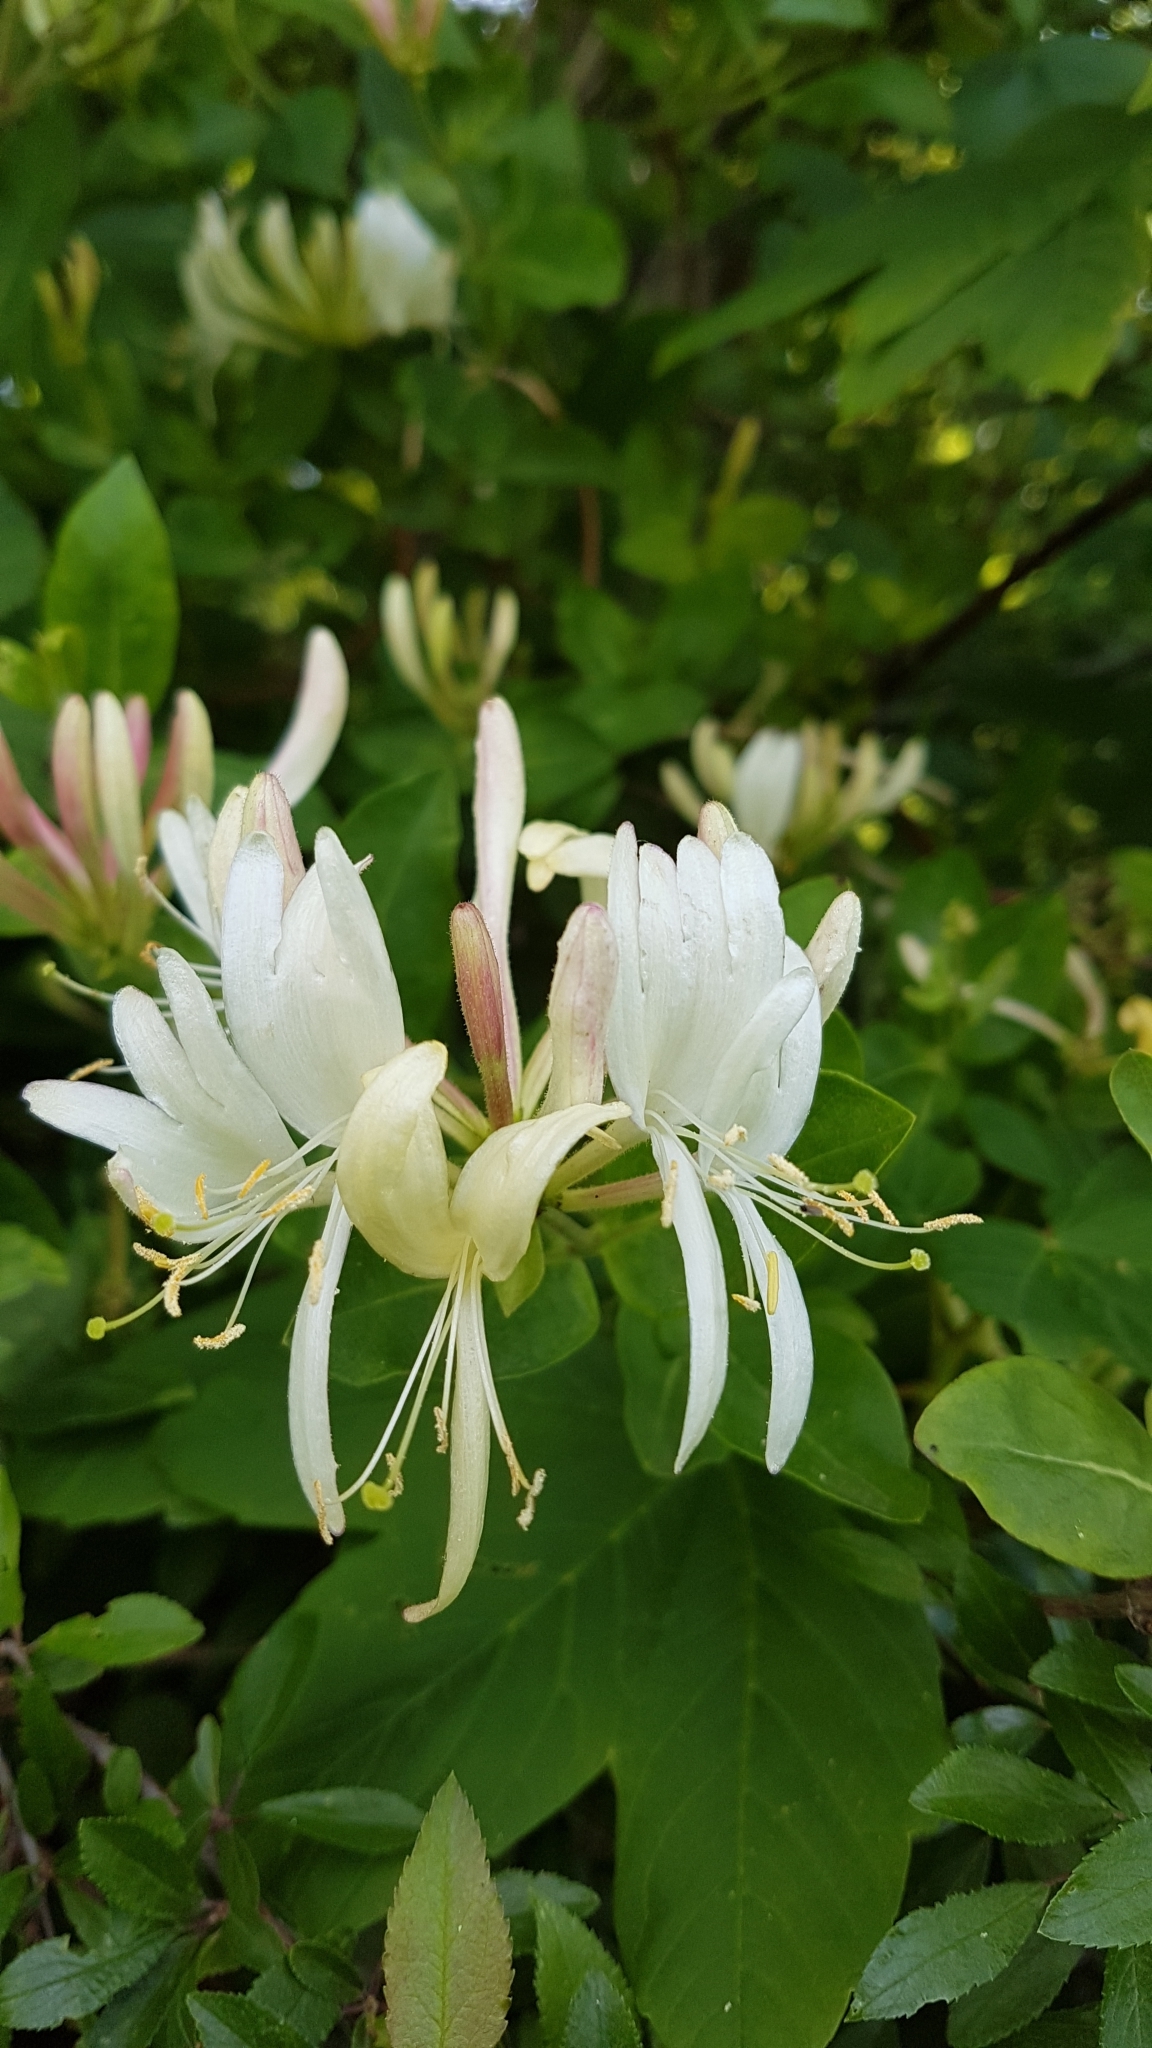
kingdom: Plantae
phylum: Tracheophyta
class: Magnoliopsida
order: Dipsacales
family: Caprifoliaceae
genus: Lonicera
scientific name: Lonicera periclymenum
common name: European honeysuckle
